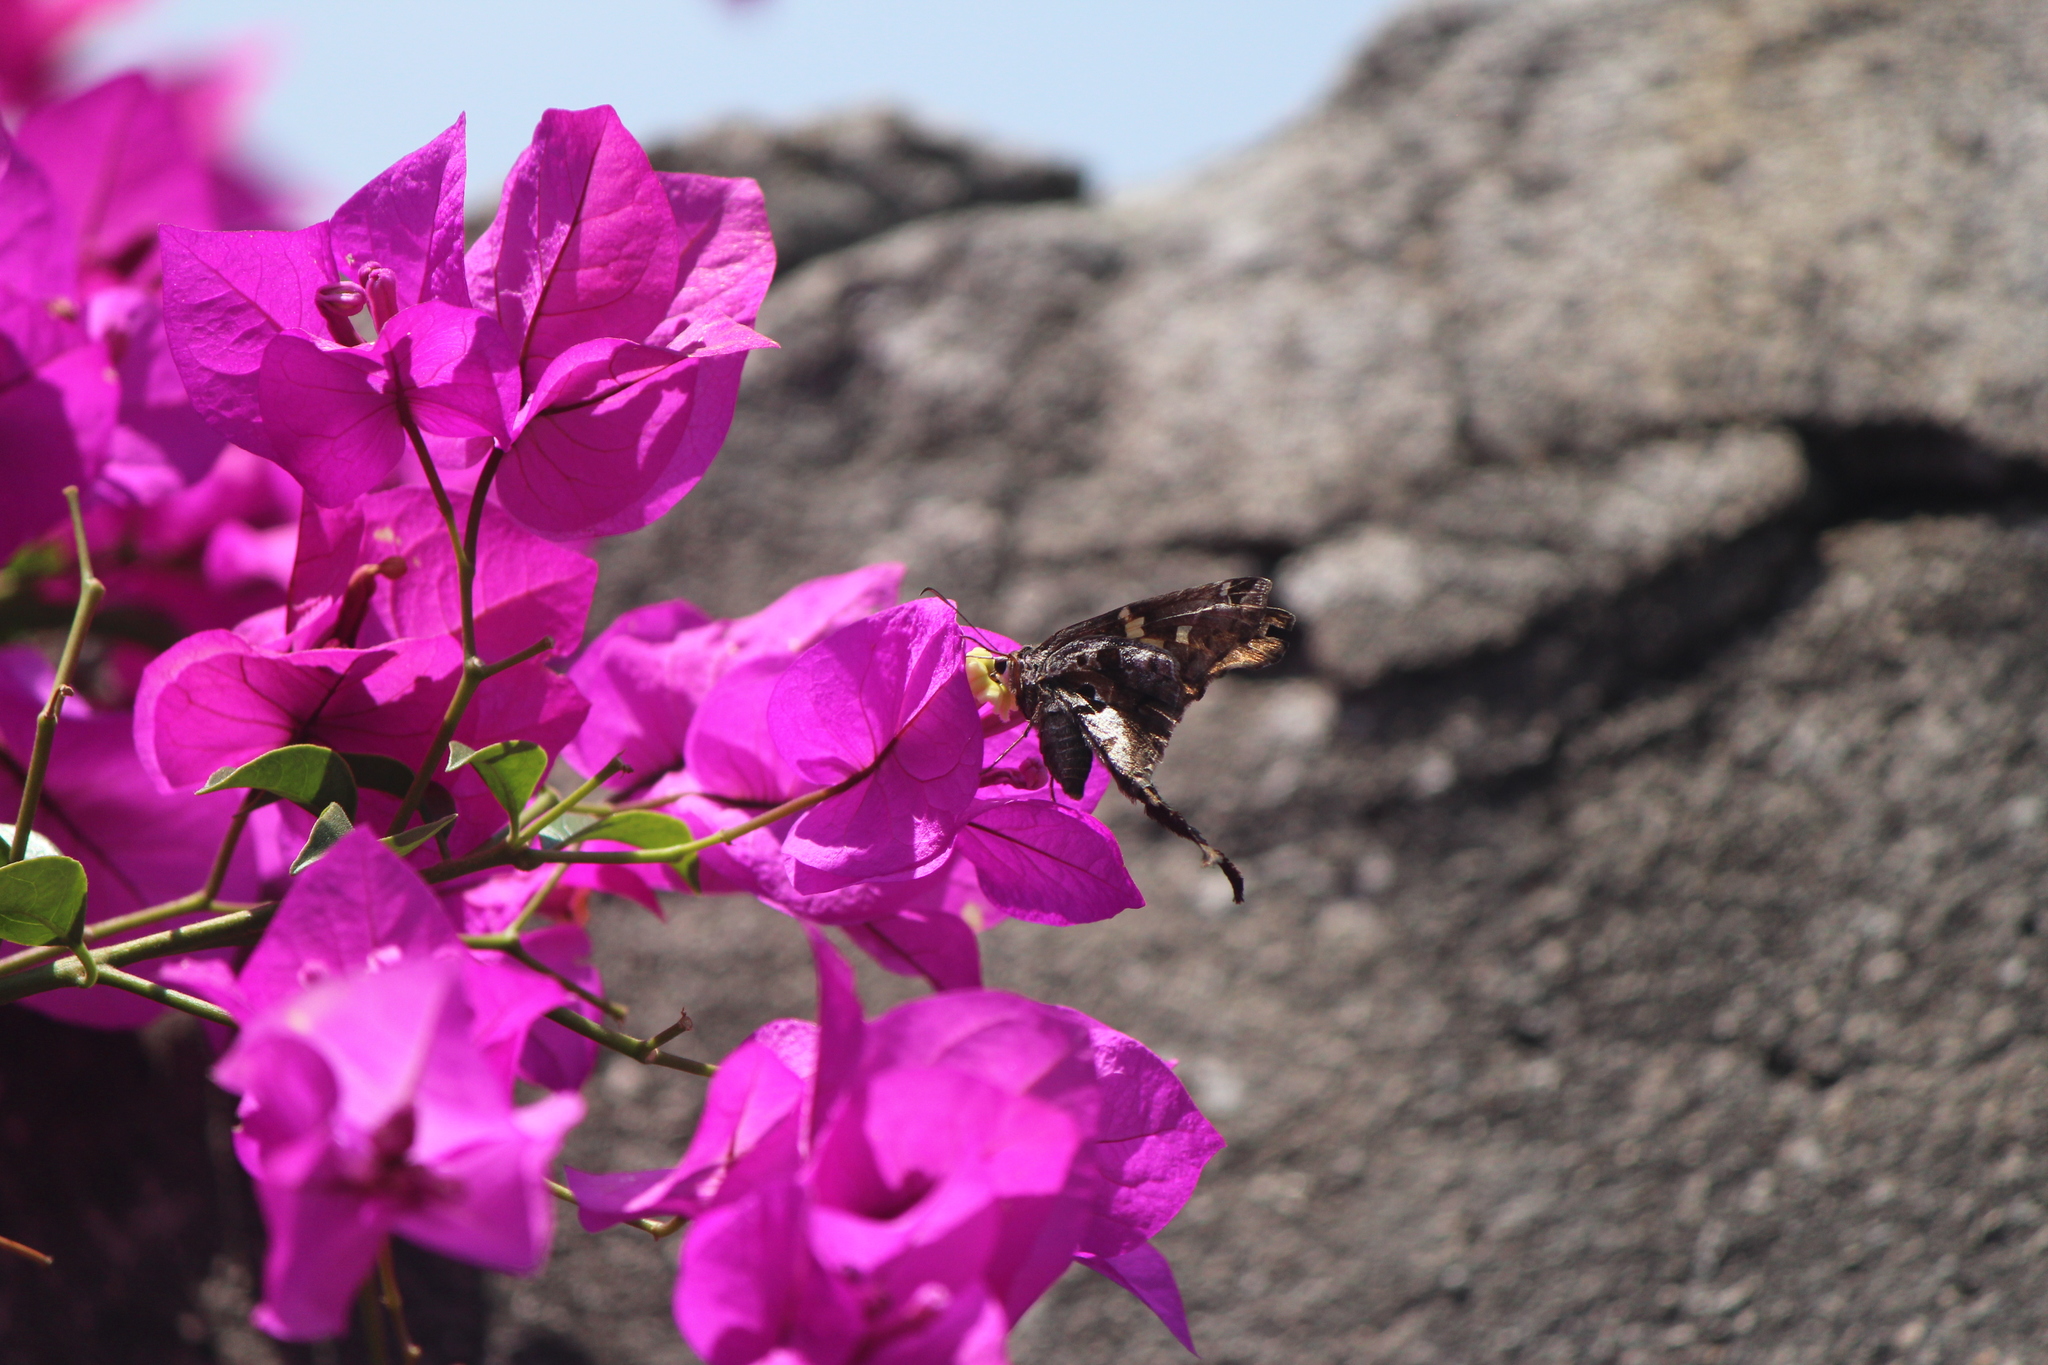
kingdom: Animalia
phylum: Arthropoda
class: Insecta
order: Lepidoptera
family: Hesperiidae
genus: Chioides
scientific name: Chioides zilpa
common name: Zilpa longtail
